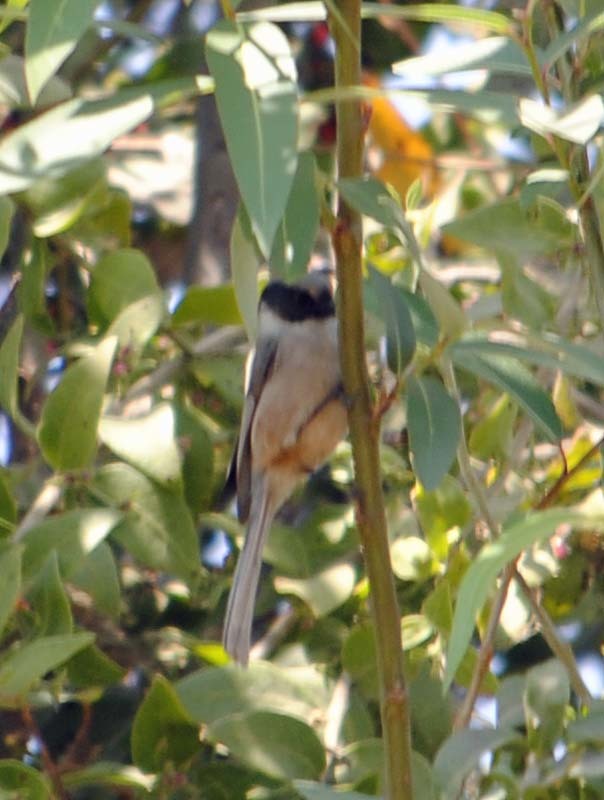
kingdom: Animalia
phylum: Chordata
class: Aves
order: Passeriformes
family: Aegithalidae
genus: Psaltriparus
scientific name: Psaltriparus minimus
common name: American bushtit
